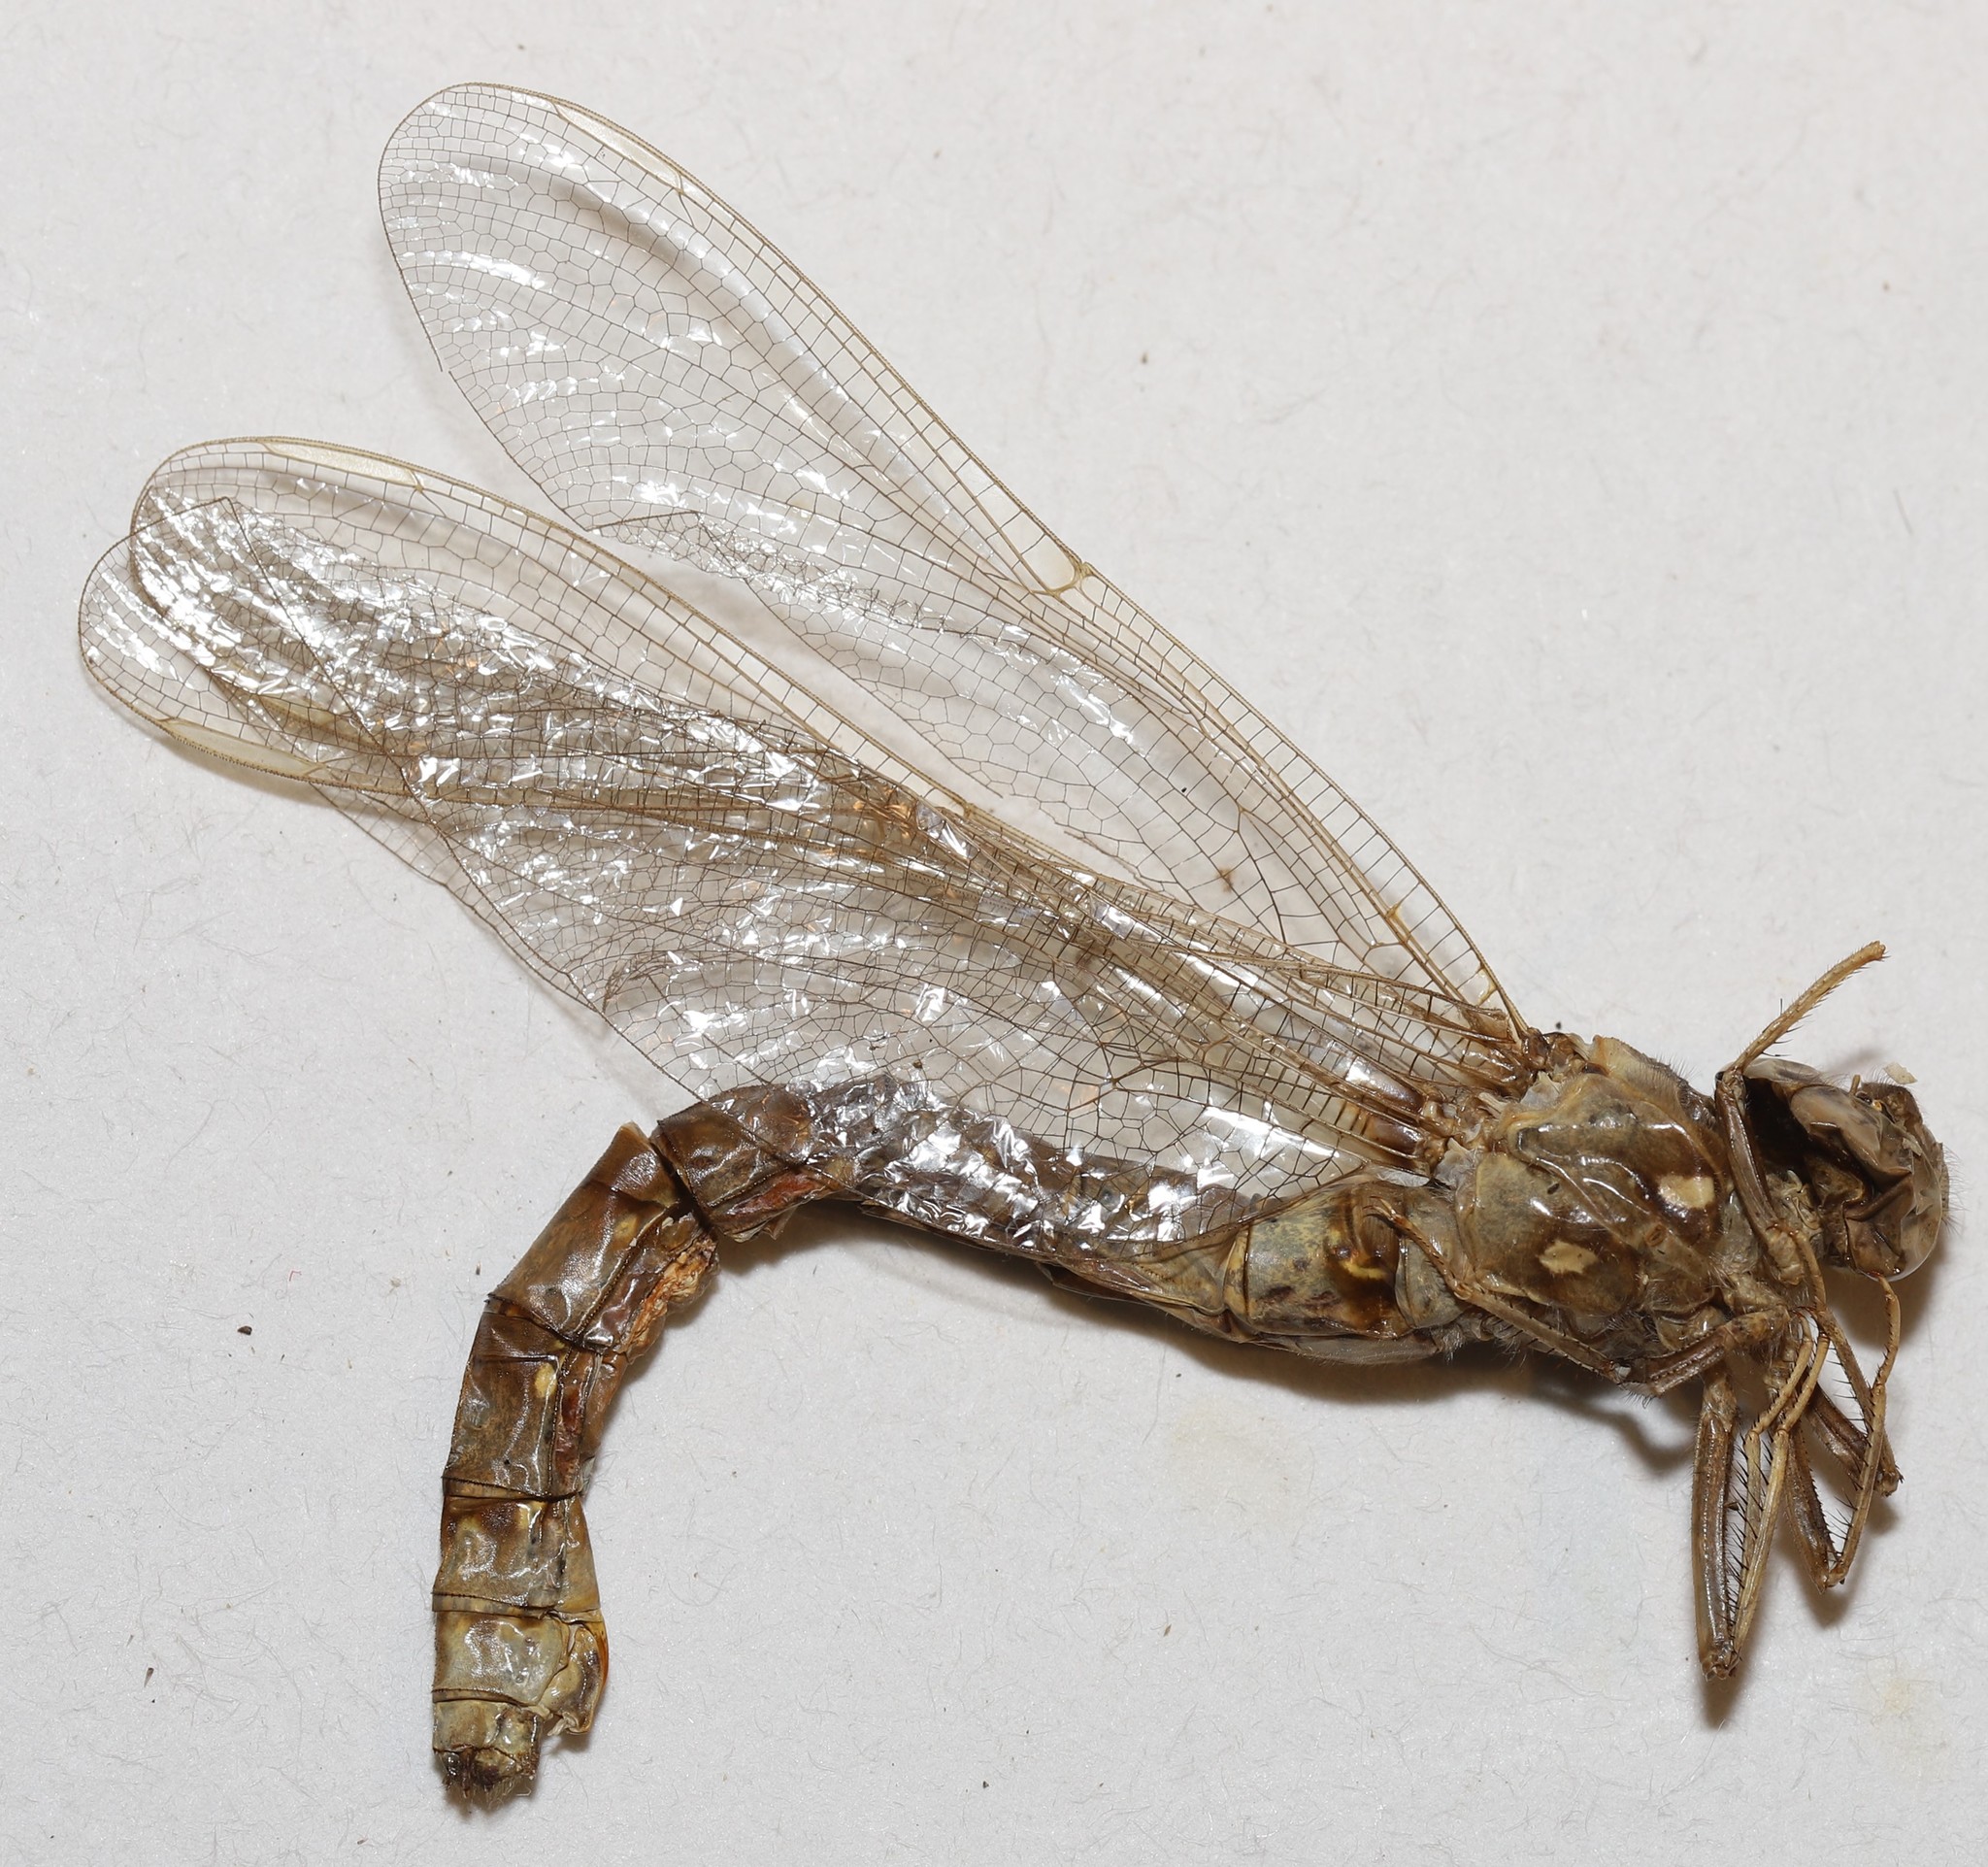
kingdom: Animalia
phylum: Arthropoda
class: Insecta
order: Odonata
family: Aeshnidae
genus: Boyeria
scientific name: Boyeria grafiana
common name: Ocellated darner
